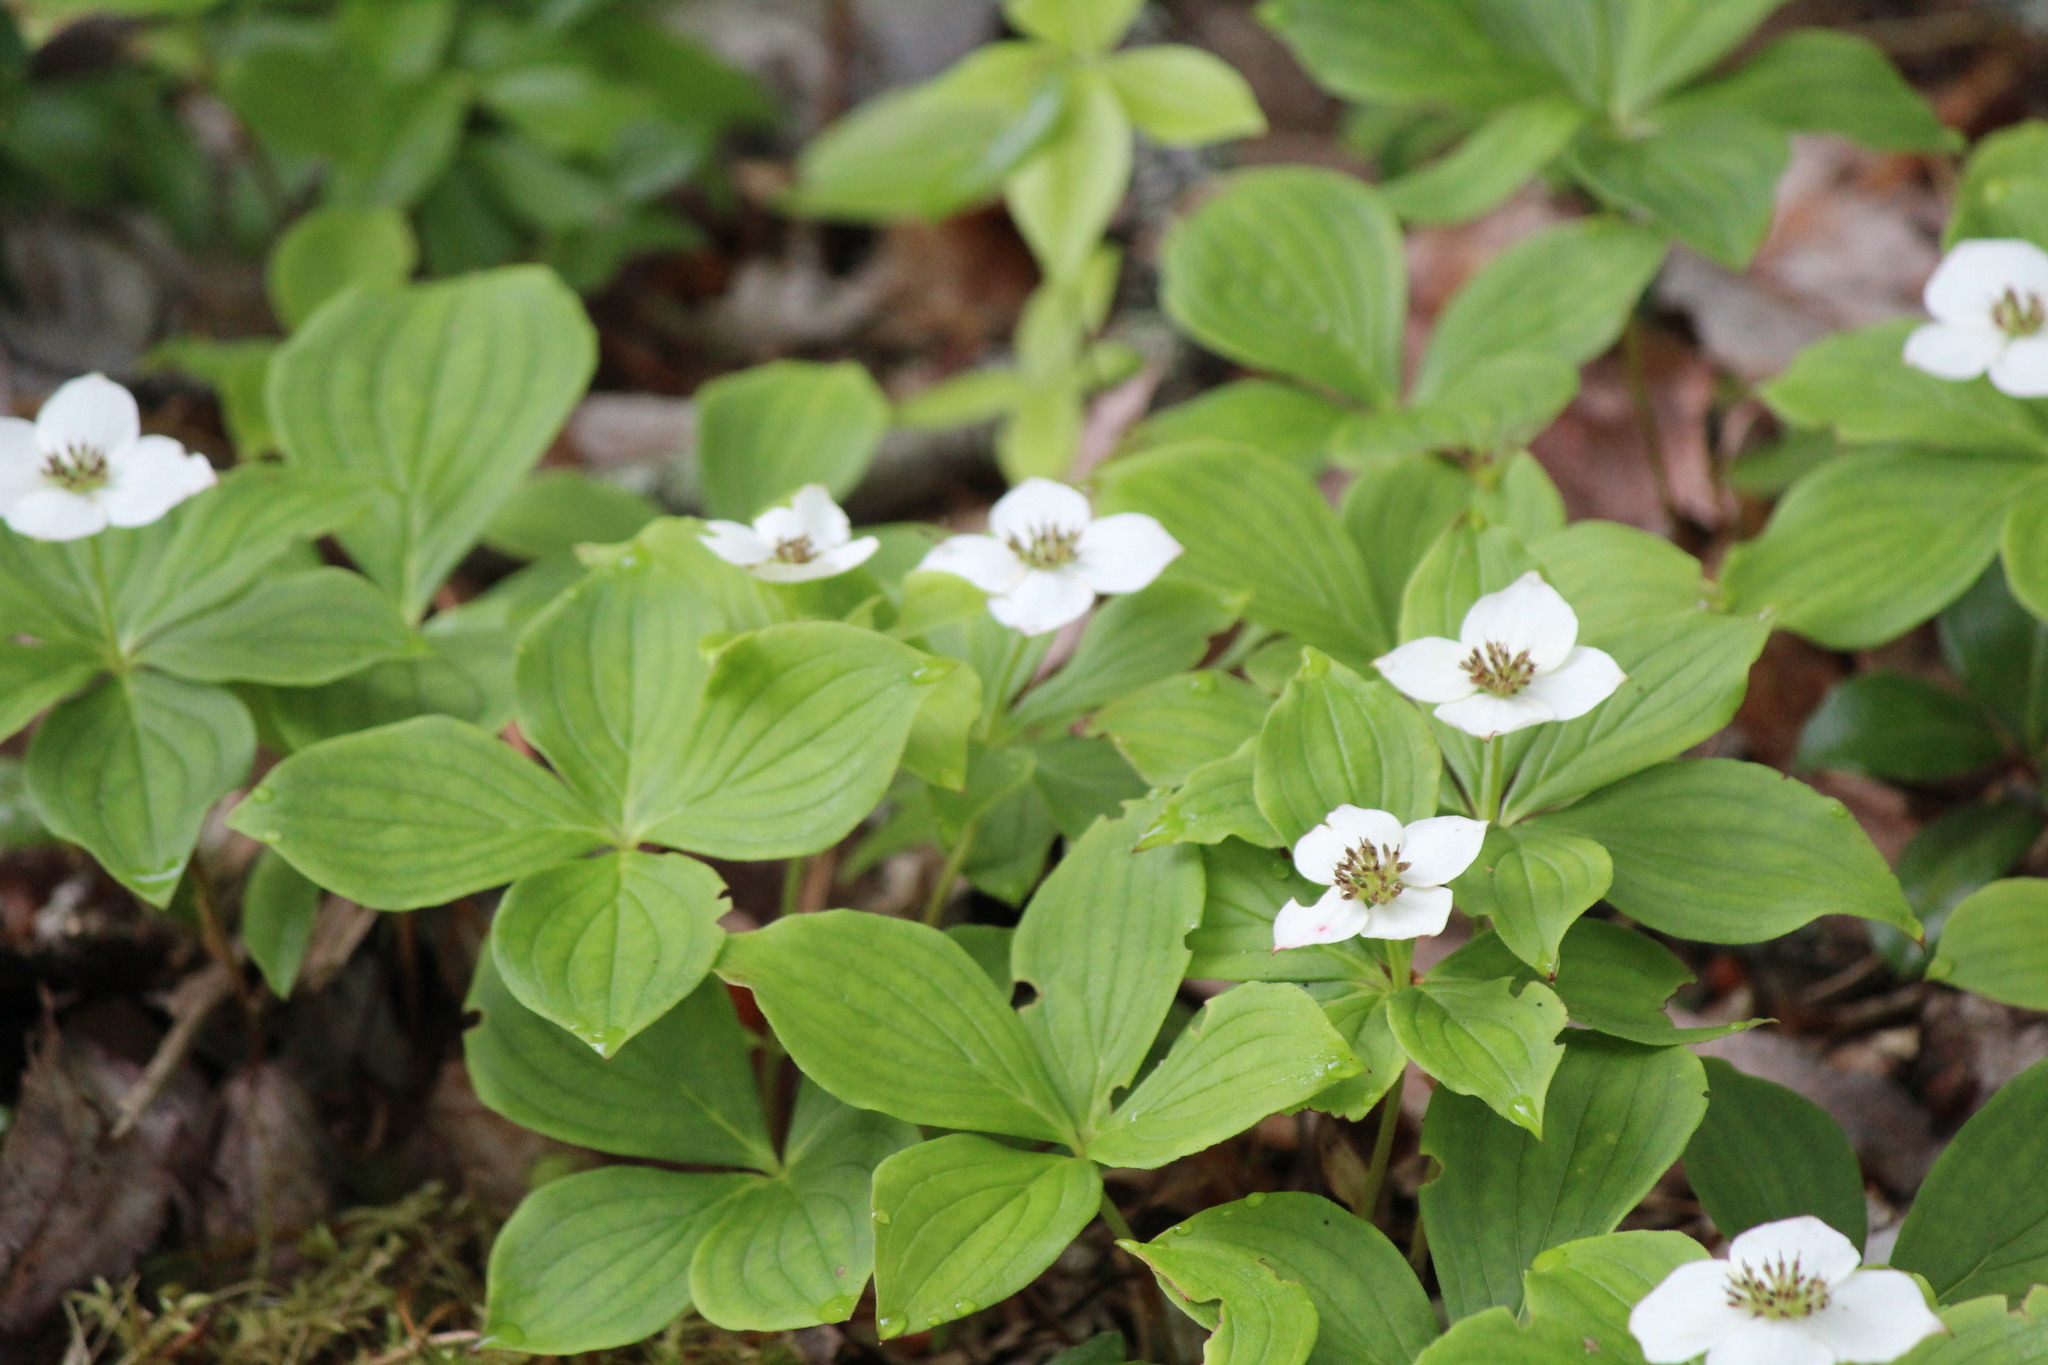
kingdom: Plantae
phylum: Tracheophyta
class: Magnoliopsida
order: Cornales
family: Cornaceae
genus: Cornus
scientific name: Cornus canadensis
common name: Creeping dogwood
